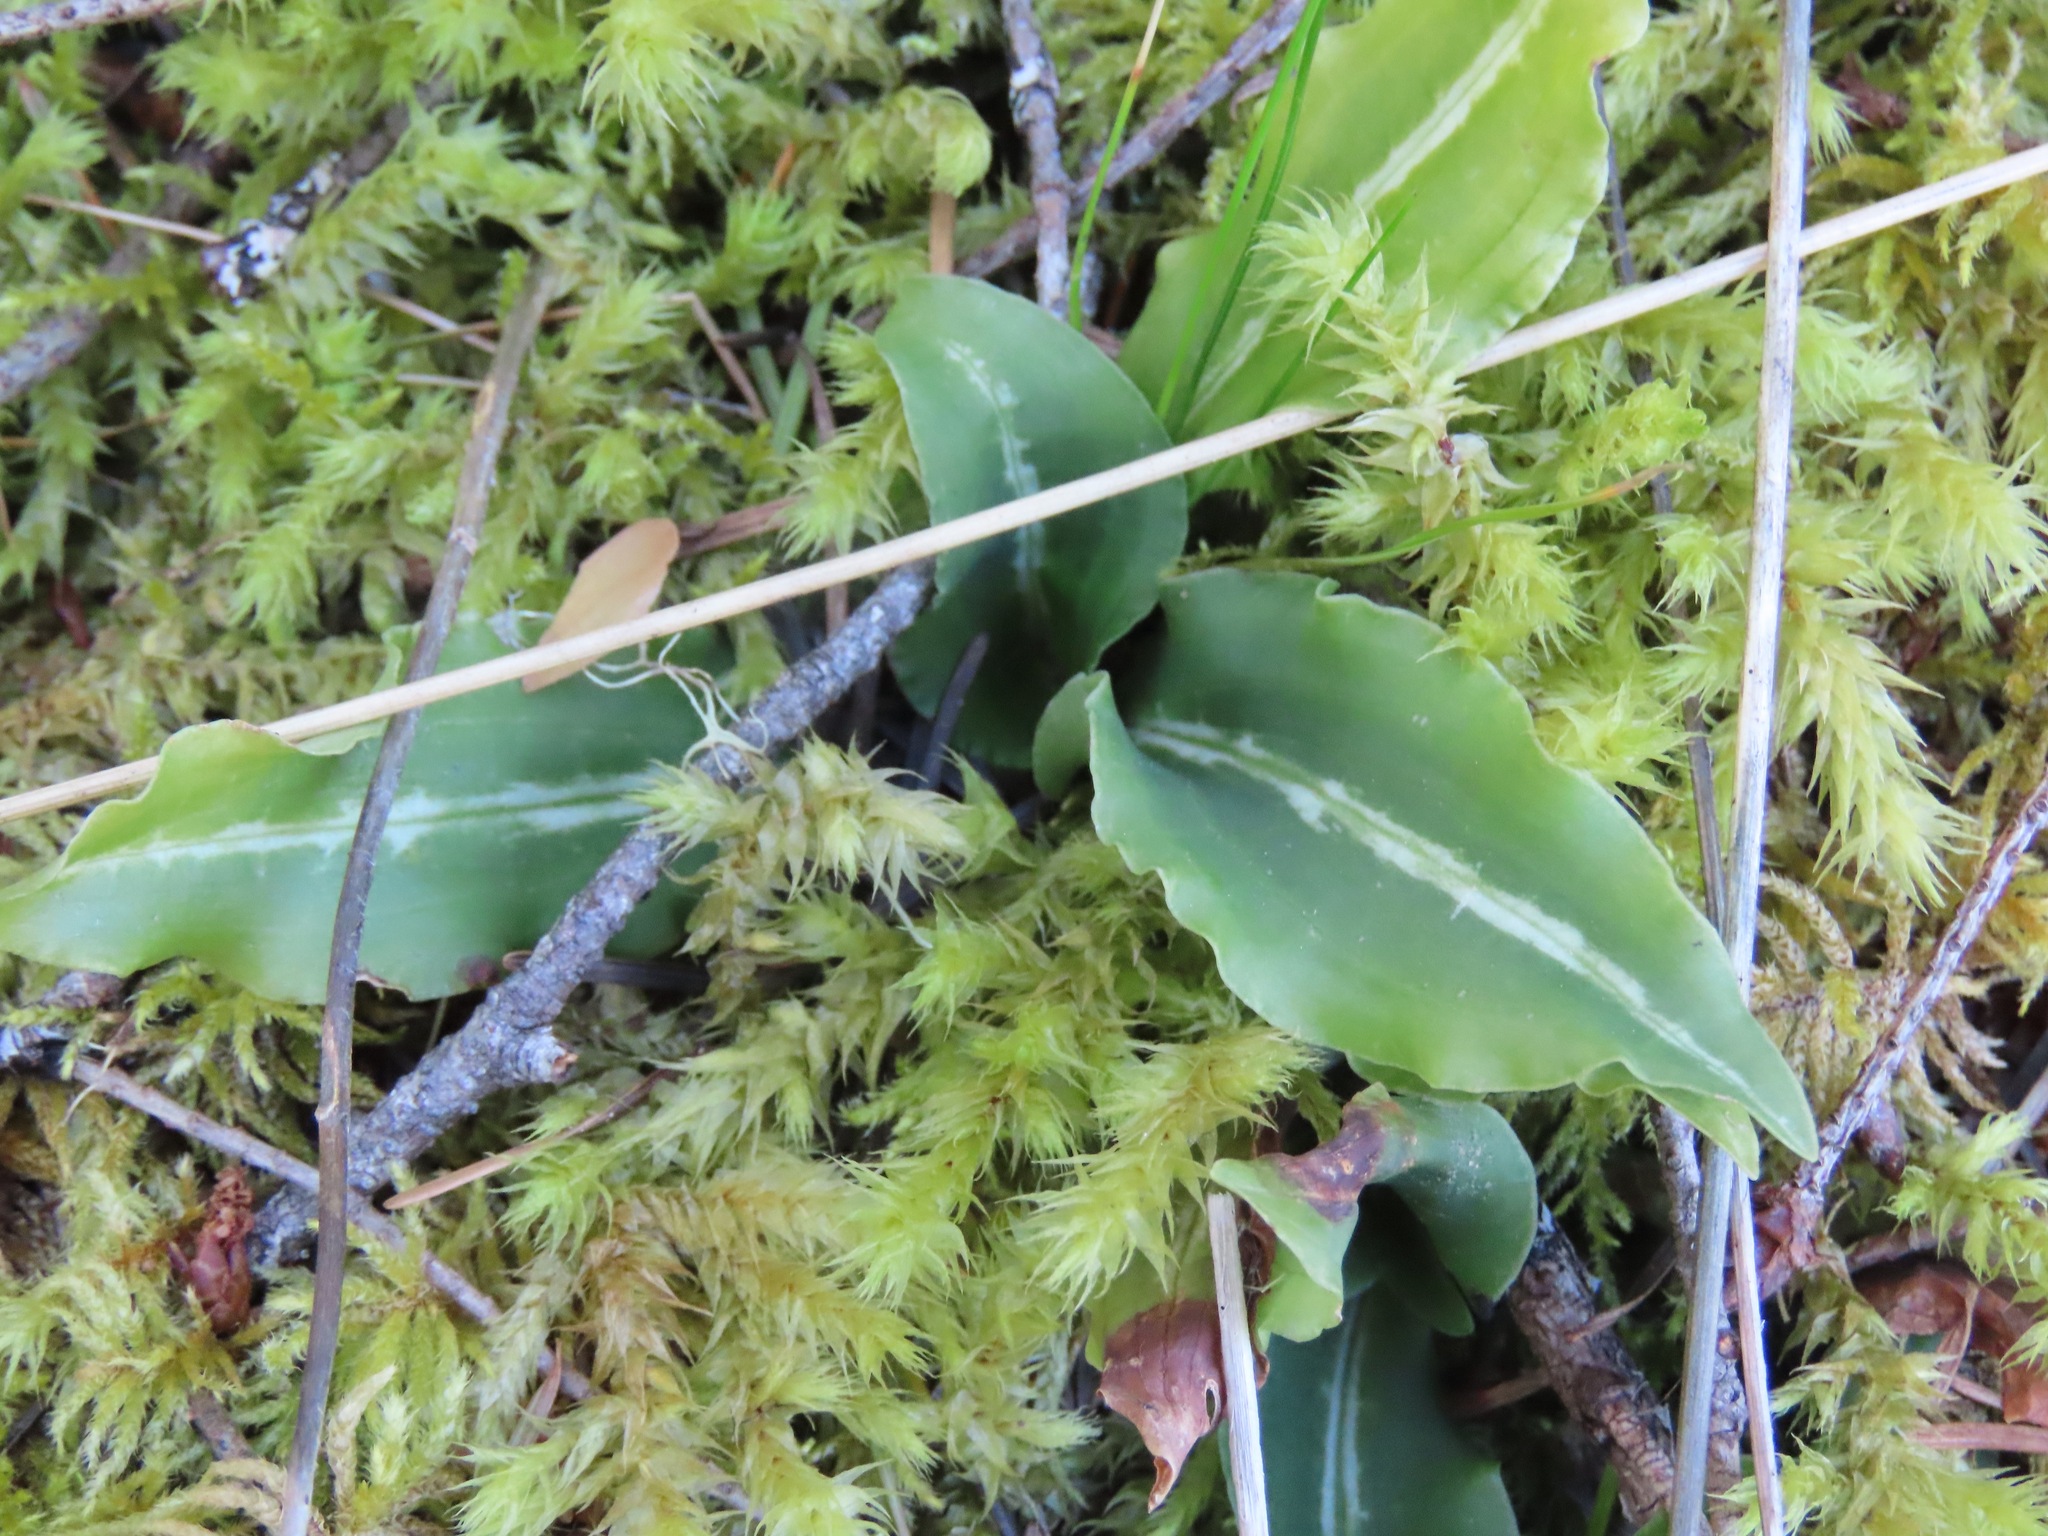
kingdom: Plantae
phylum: Tracheophyta
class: Liliopsida
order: Asparagales
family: Orchidaceae
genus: Goodyera
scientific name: Goodyera oblongifolia
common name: Giant rattlesnake-plantain
